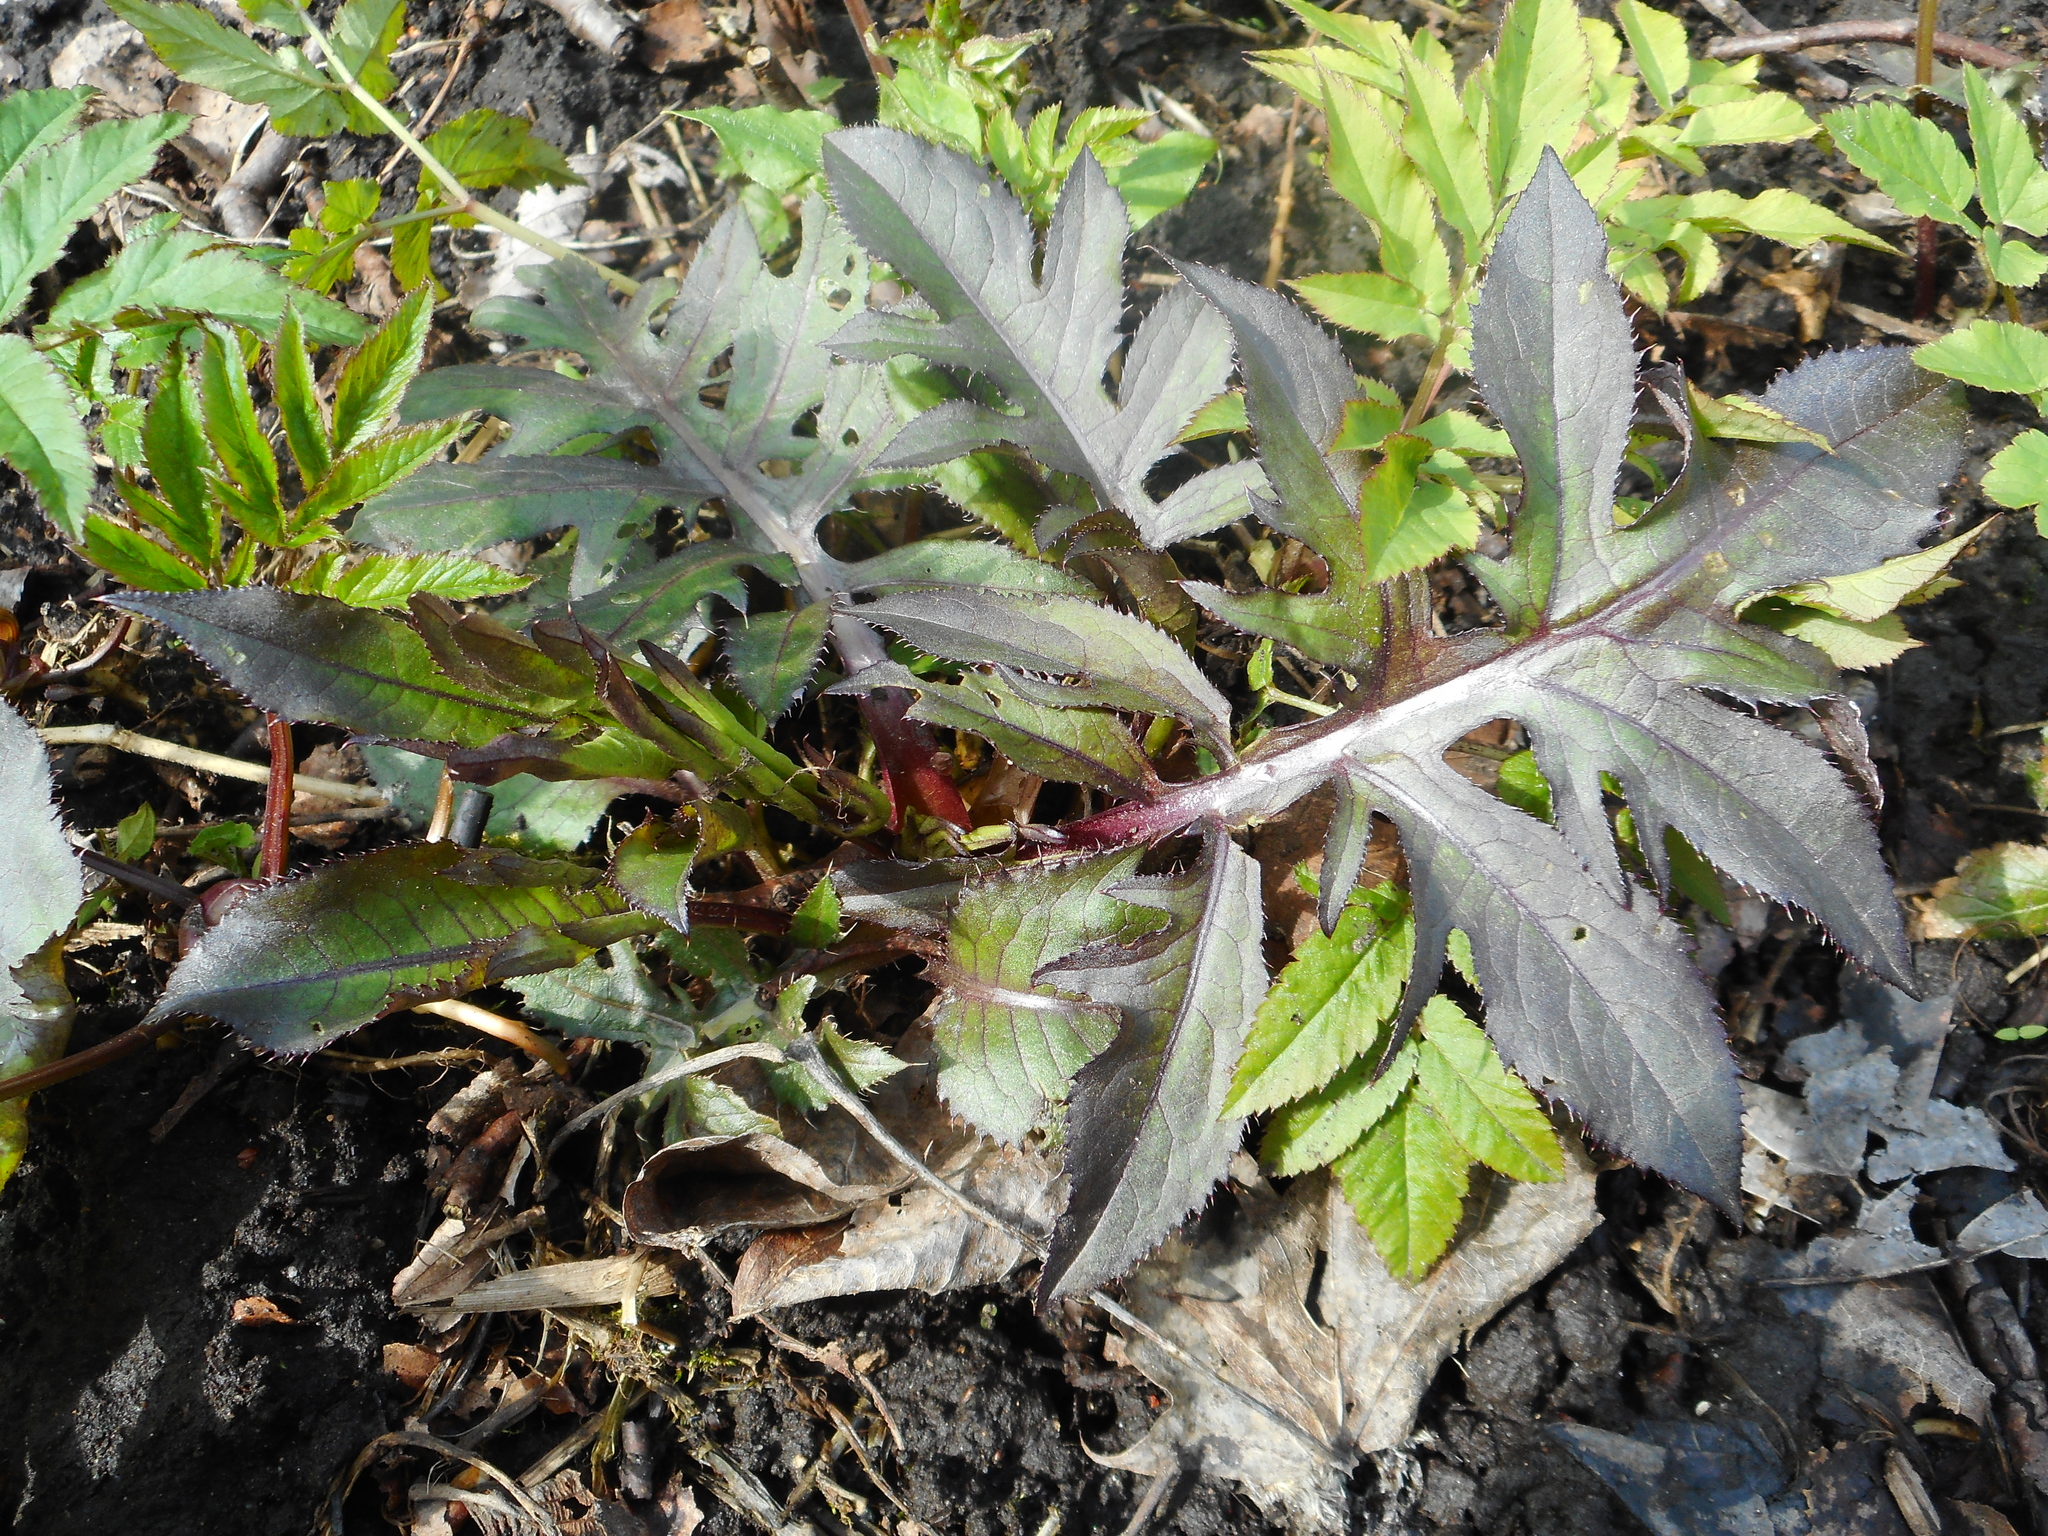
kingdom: Plantae
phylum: Tracheophyta
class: Magnoliopsida
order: Asterales
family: Asteraceae
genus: Cirsium
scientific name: Cirsium oleraceum
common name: Cabbage thistle
